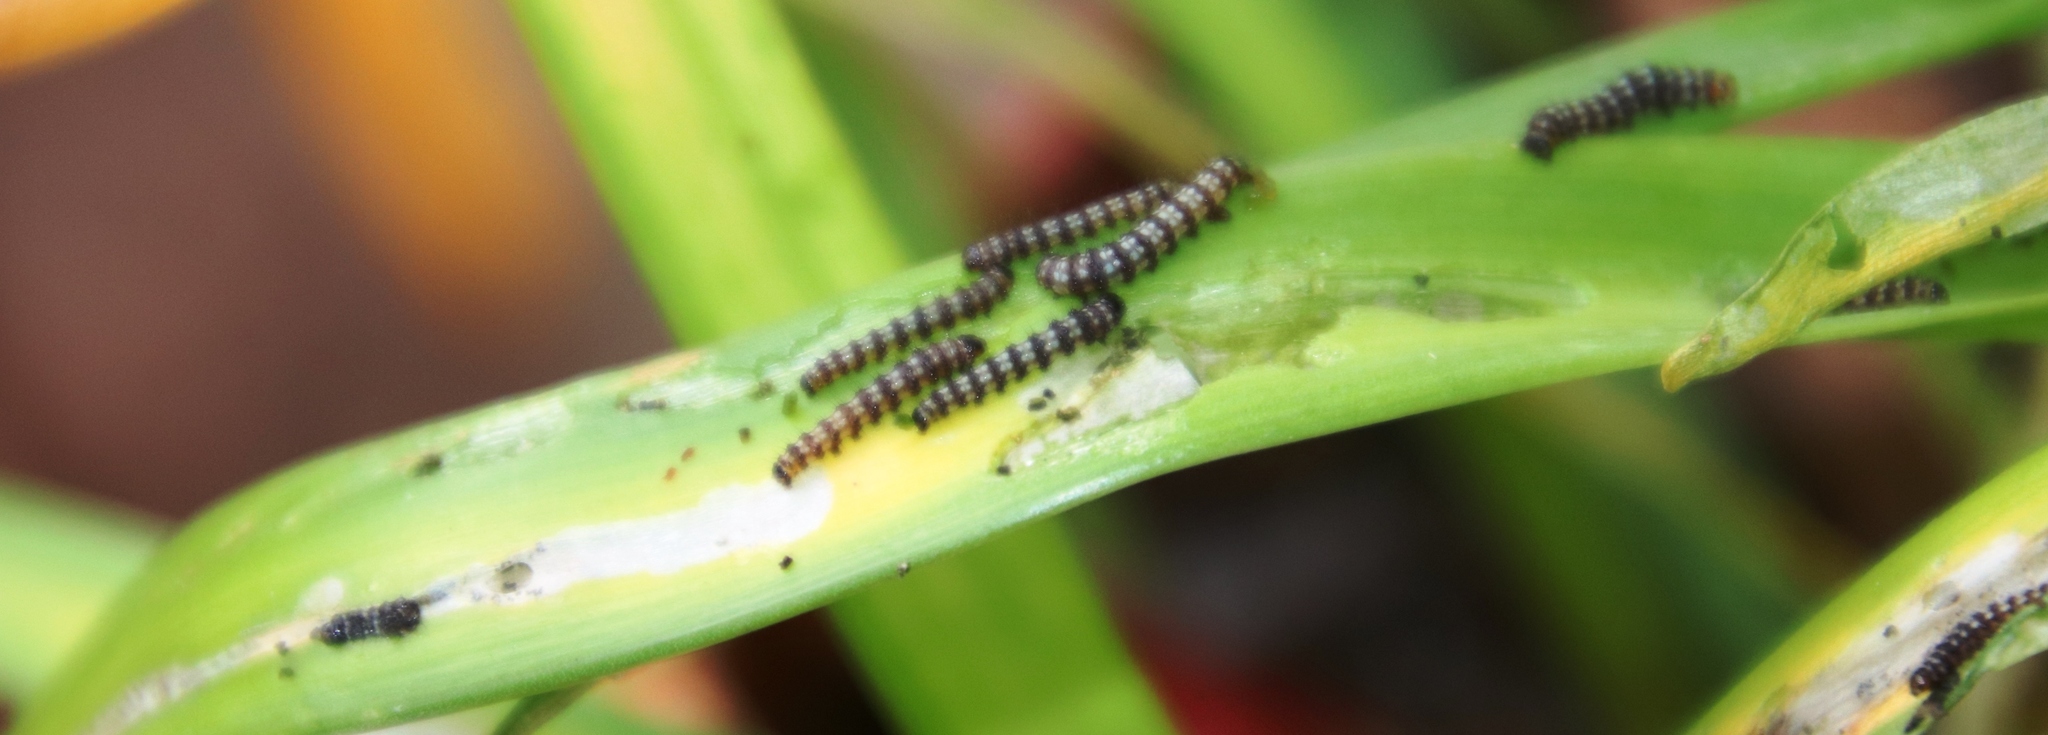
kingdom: Animalia
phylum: Arthropoda
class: Insecta
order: Lepidoptera
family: Noctuidae
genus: Brithys
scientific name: Brithys crini
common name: Kew arches
